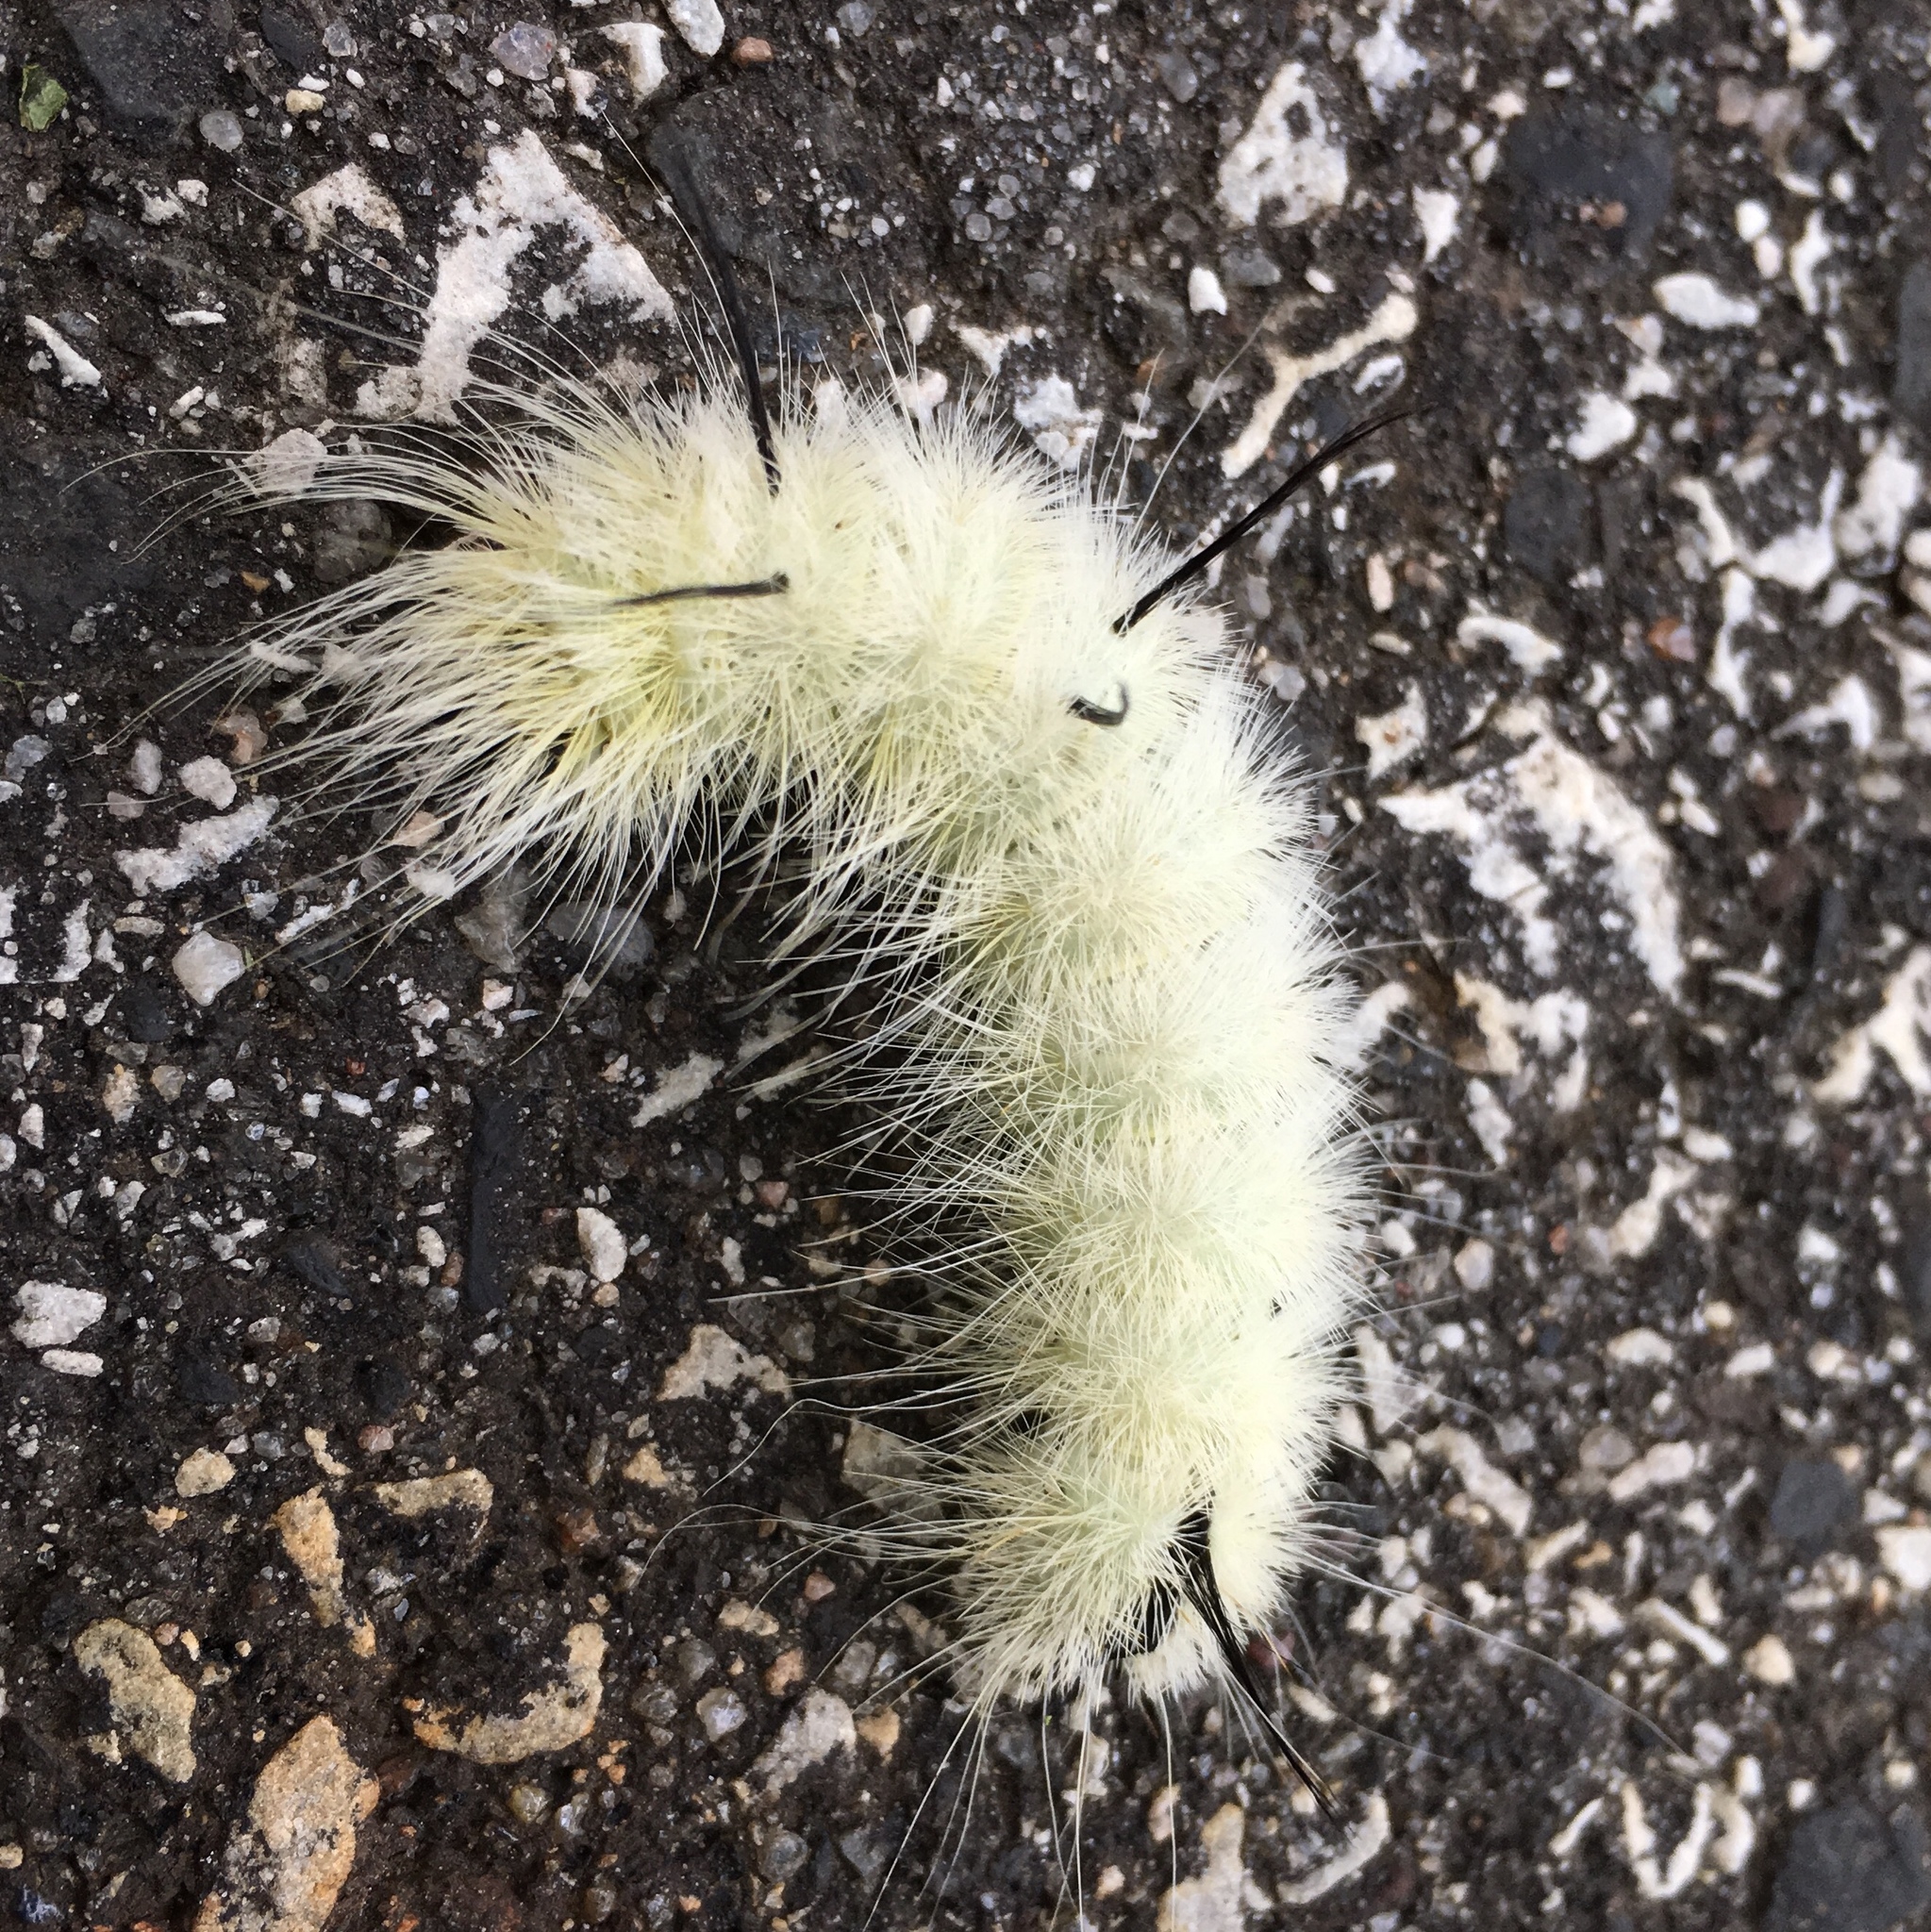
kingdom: Animalia
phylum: Arthropoda
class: Insecta
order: Lepidoptera
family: Noctuidae
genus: Acronicta
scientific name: Acronicta americana
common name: American dagger
